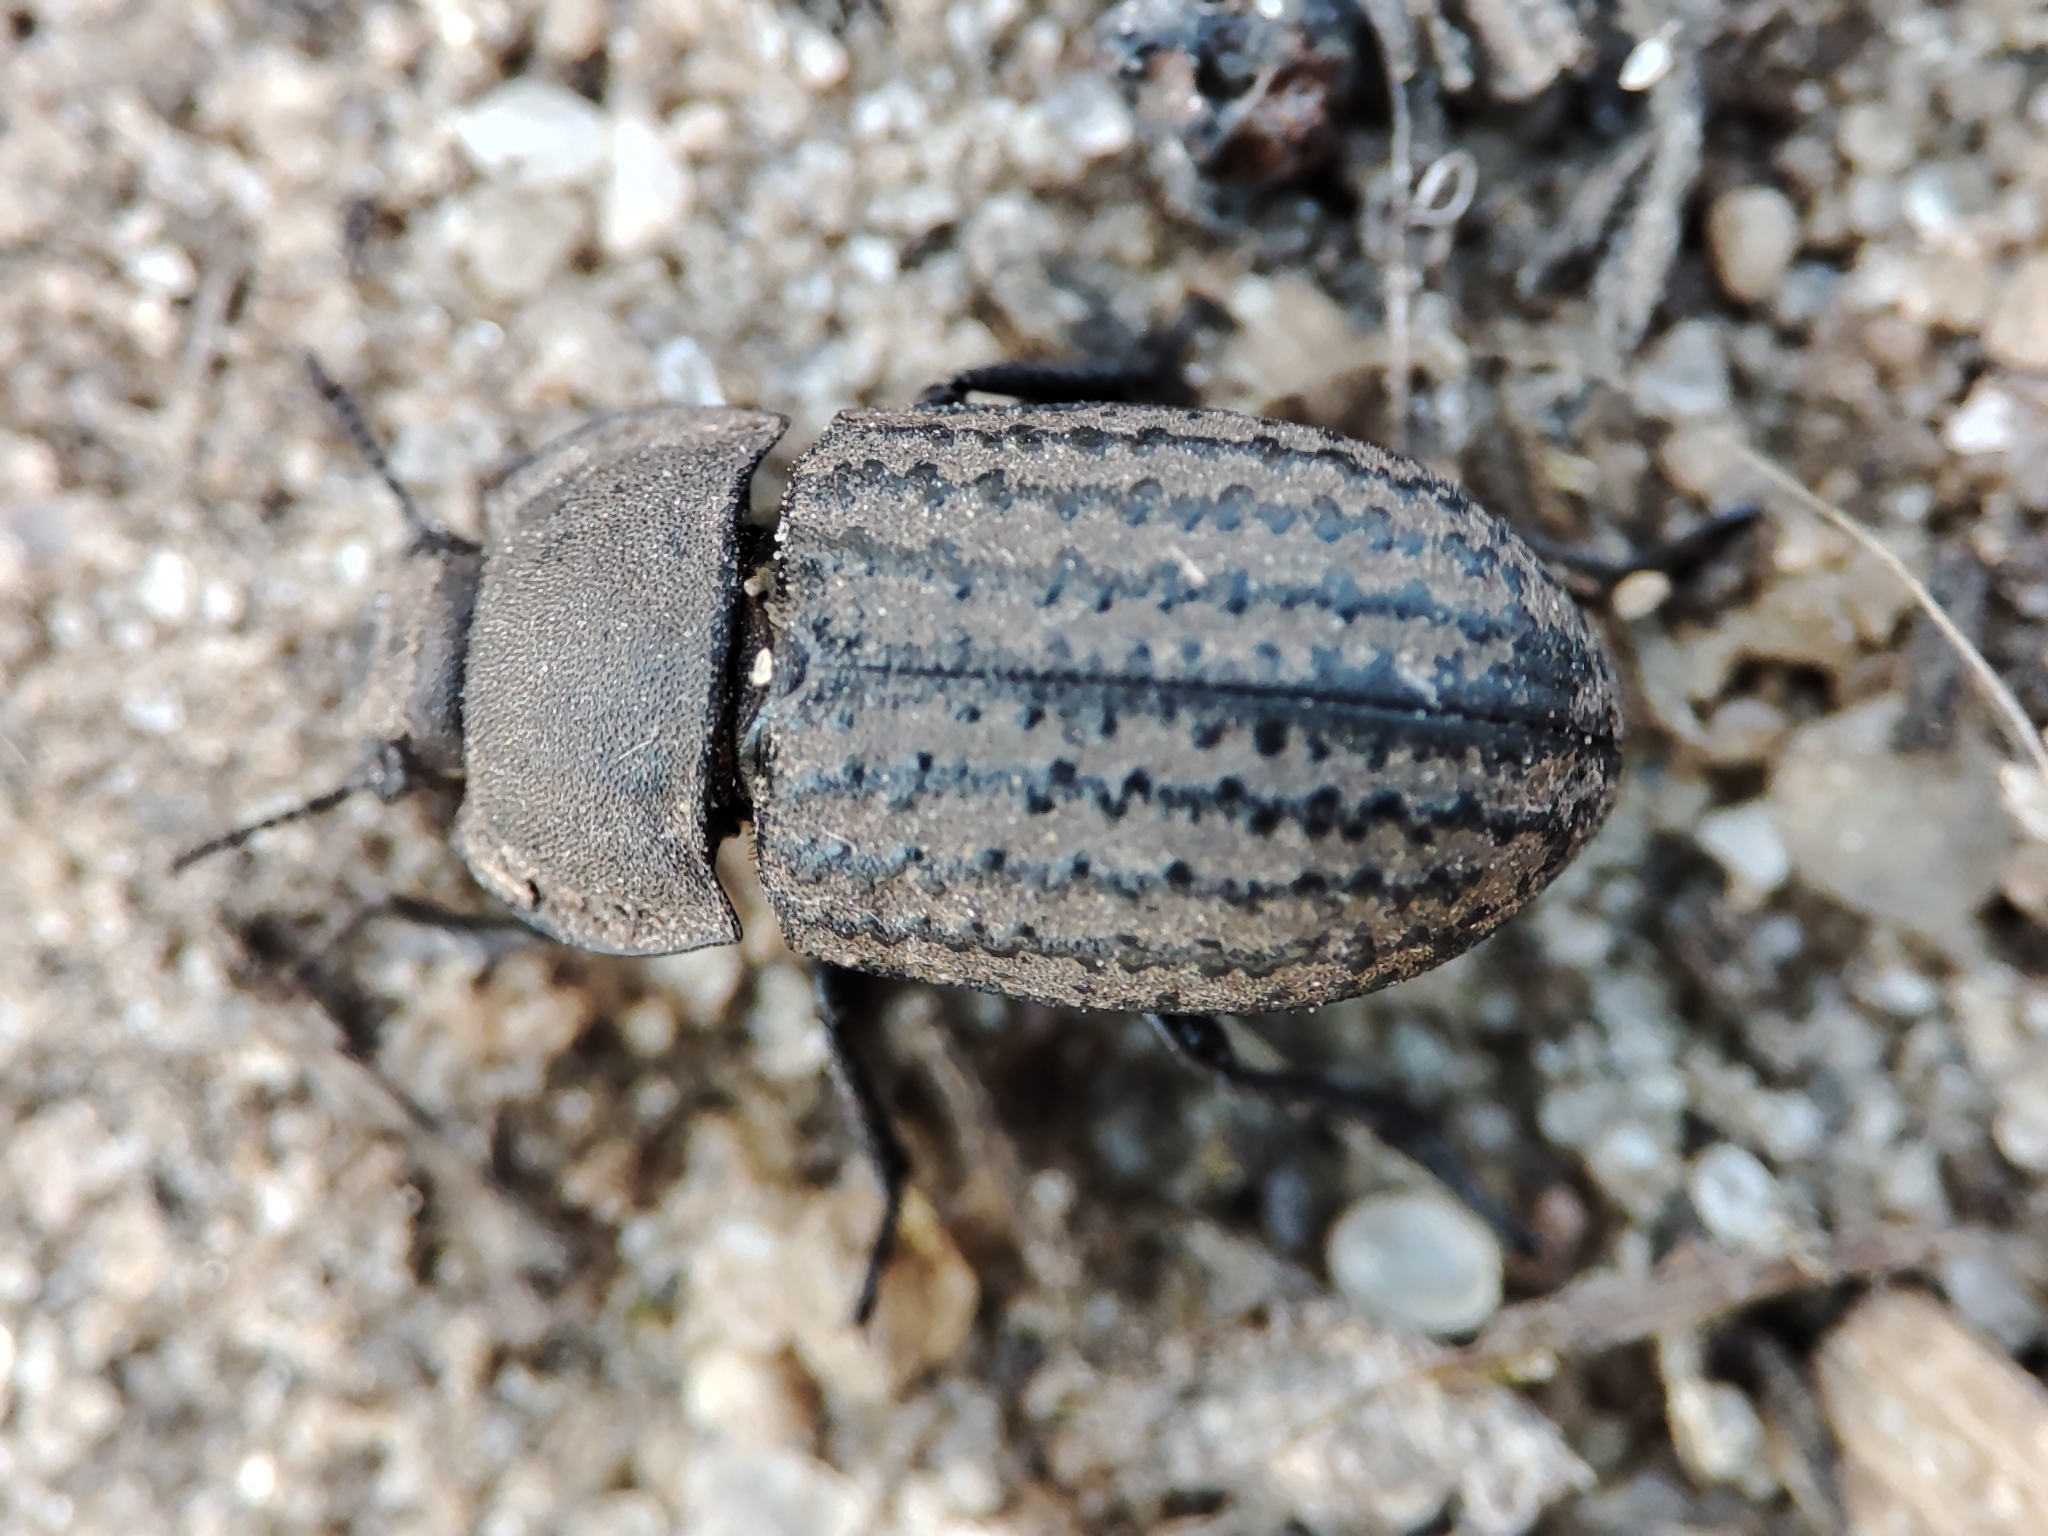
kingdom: Animalia
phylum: Arthropoda
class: Insecta
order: Coleoptera
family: Tenebrionidae
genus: Opatrum
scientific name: Opatrum sabulosum
